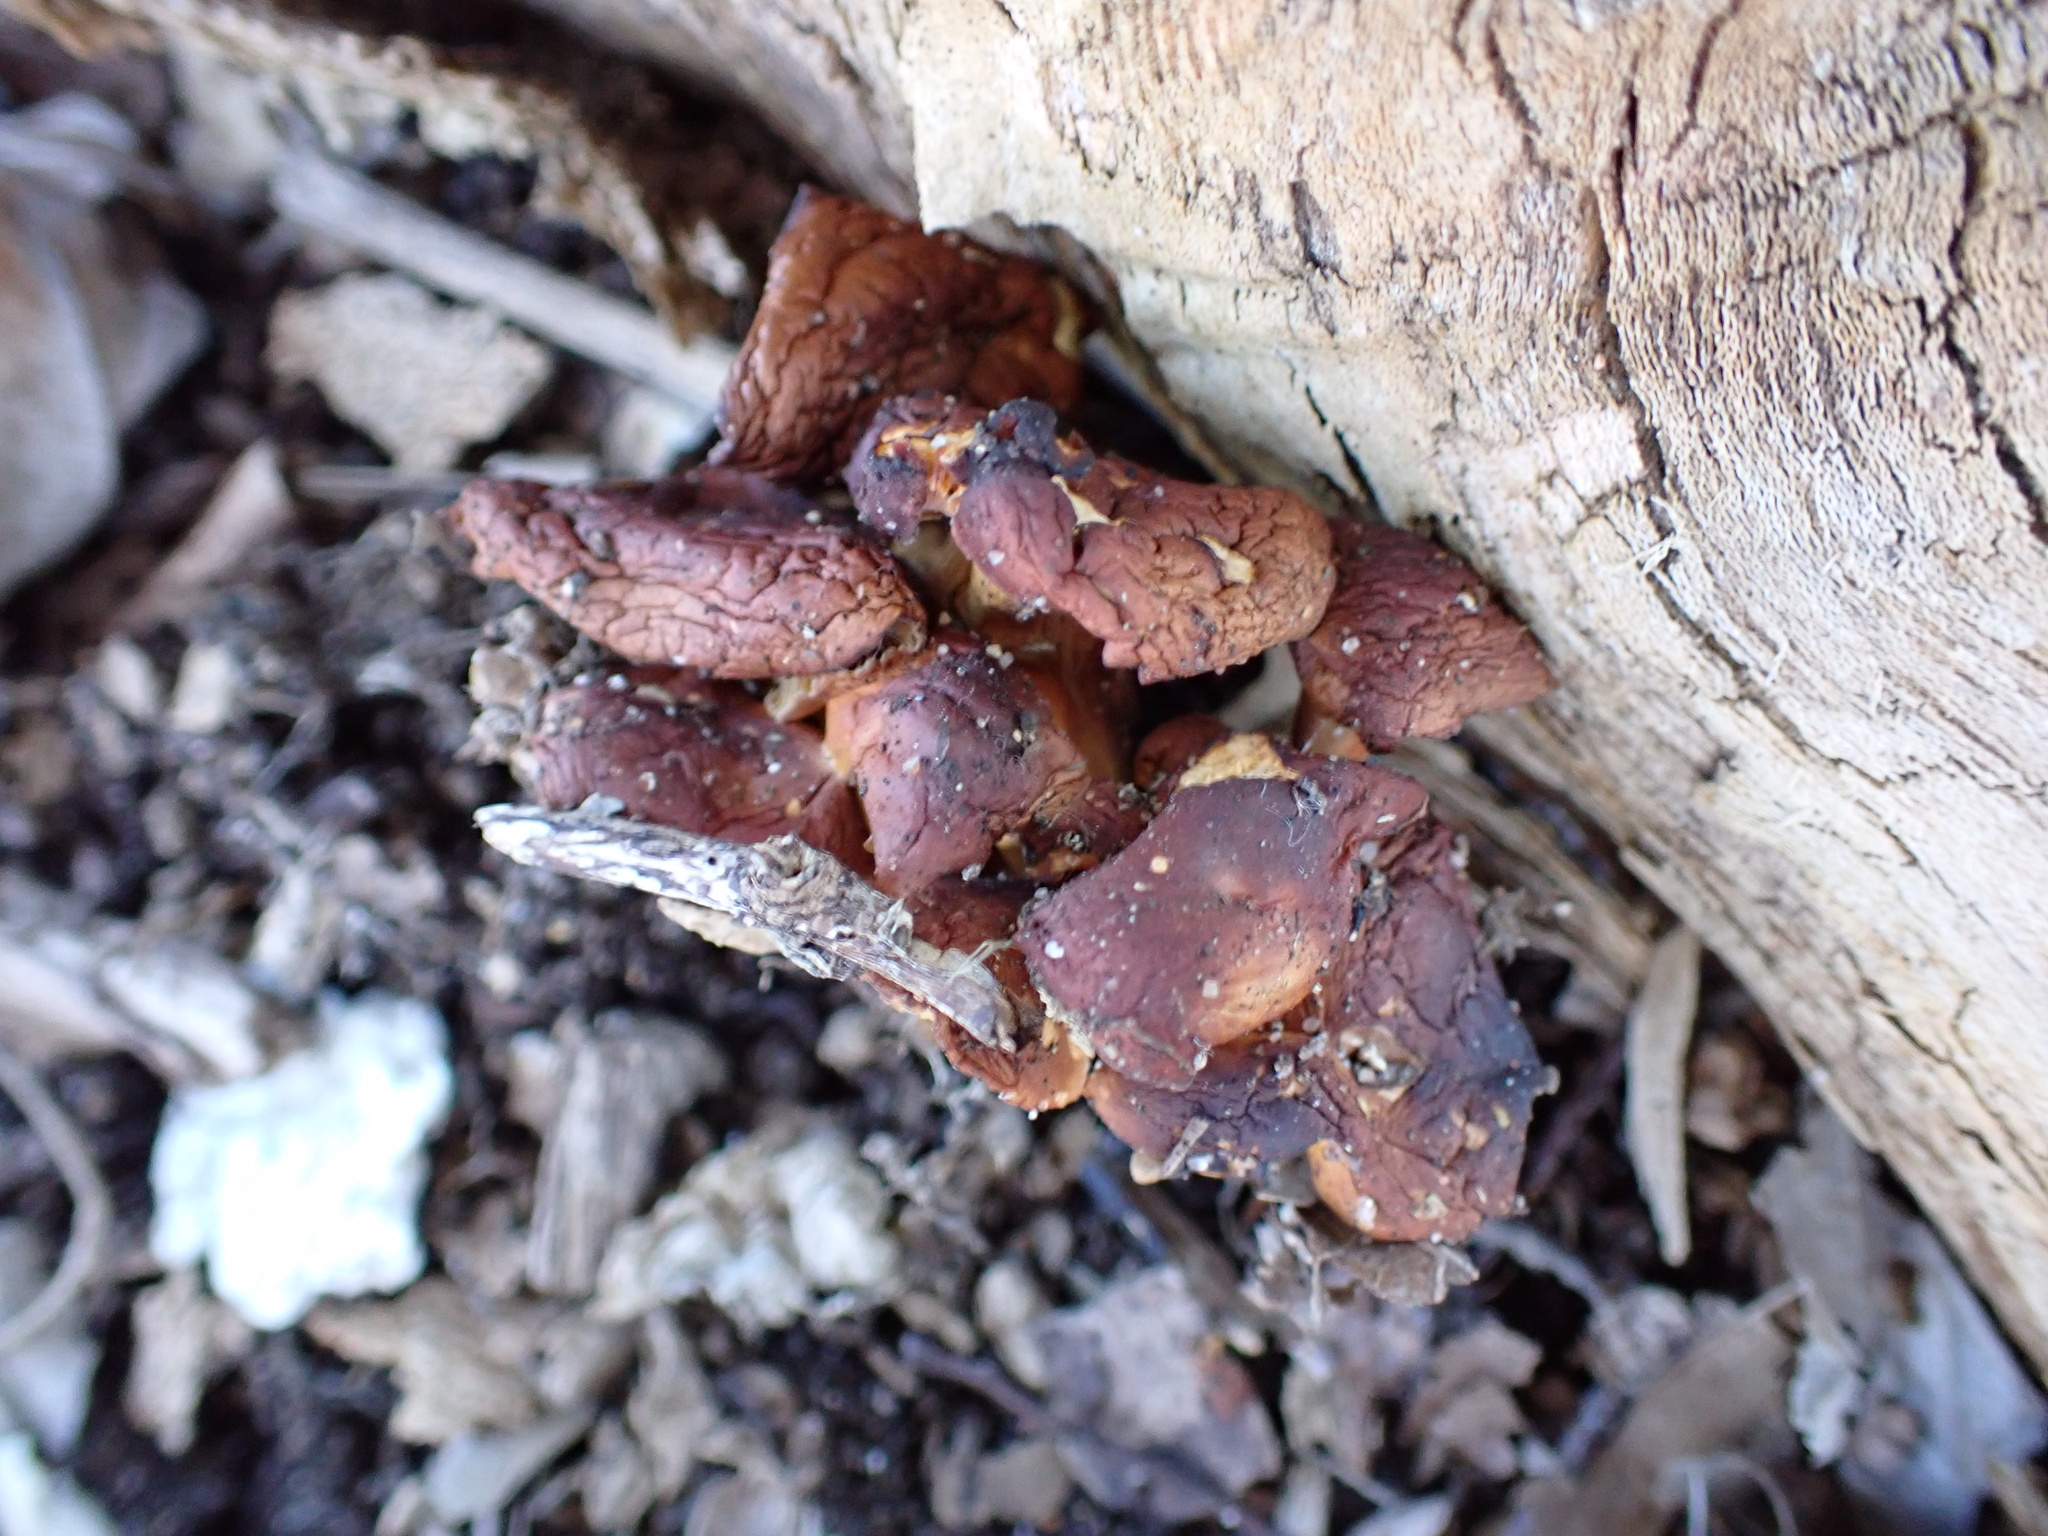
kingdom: Fungi
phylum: Basidiomycota
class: Agaricomycetes
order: Agaricales
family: Physalacriaceae
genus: Flammulina
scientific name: Flammulina velutipes
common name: Velvet shank
